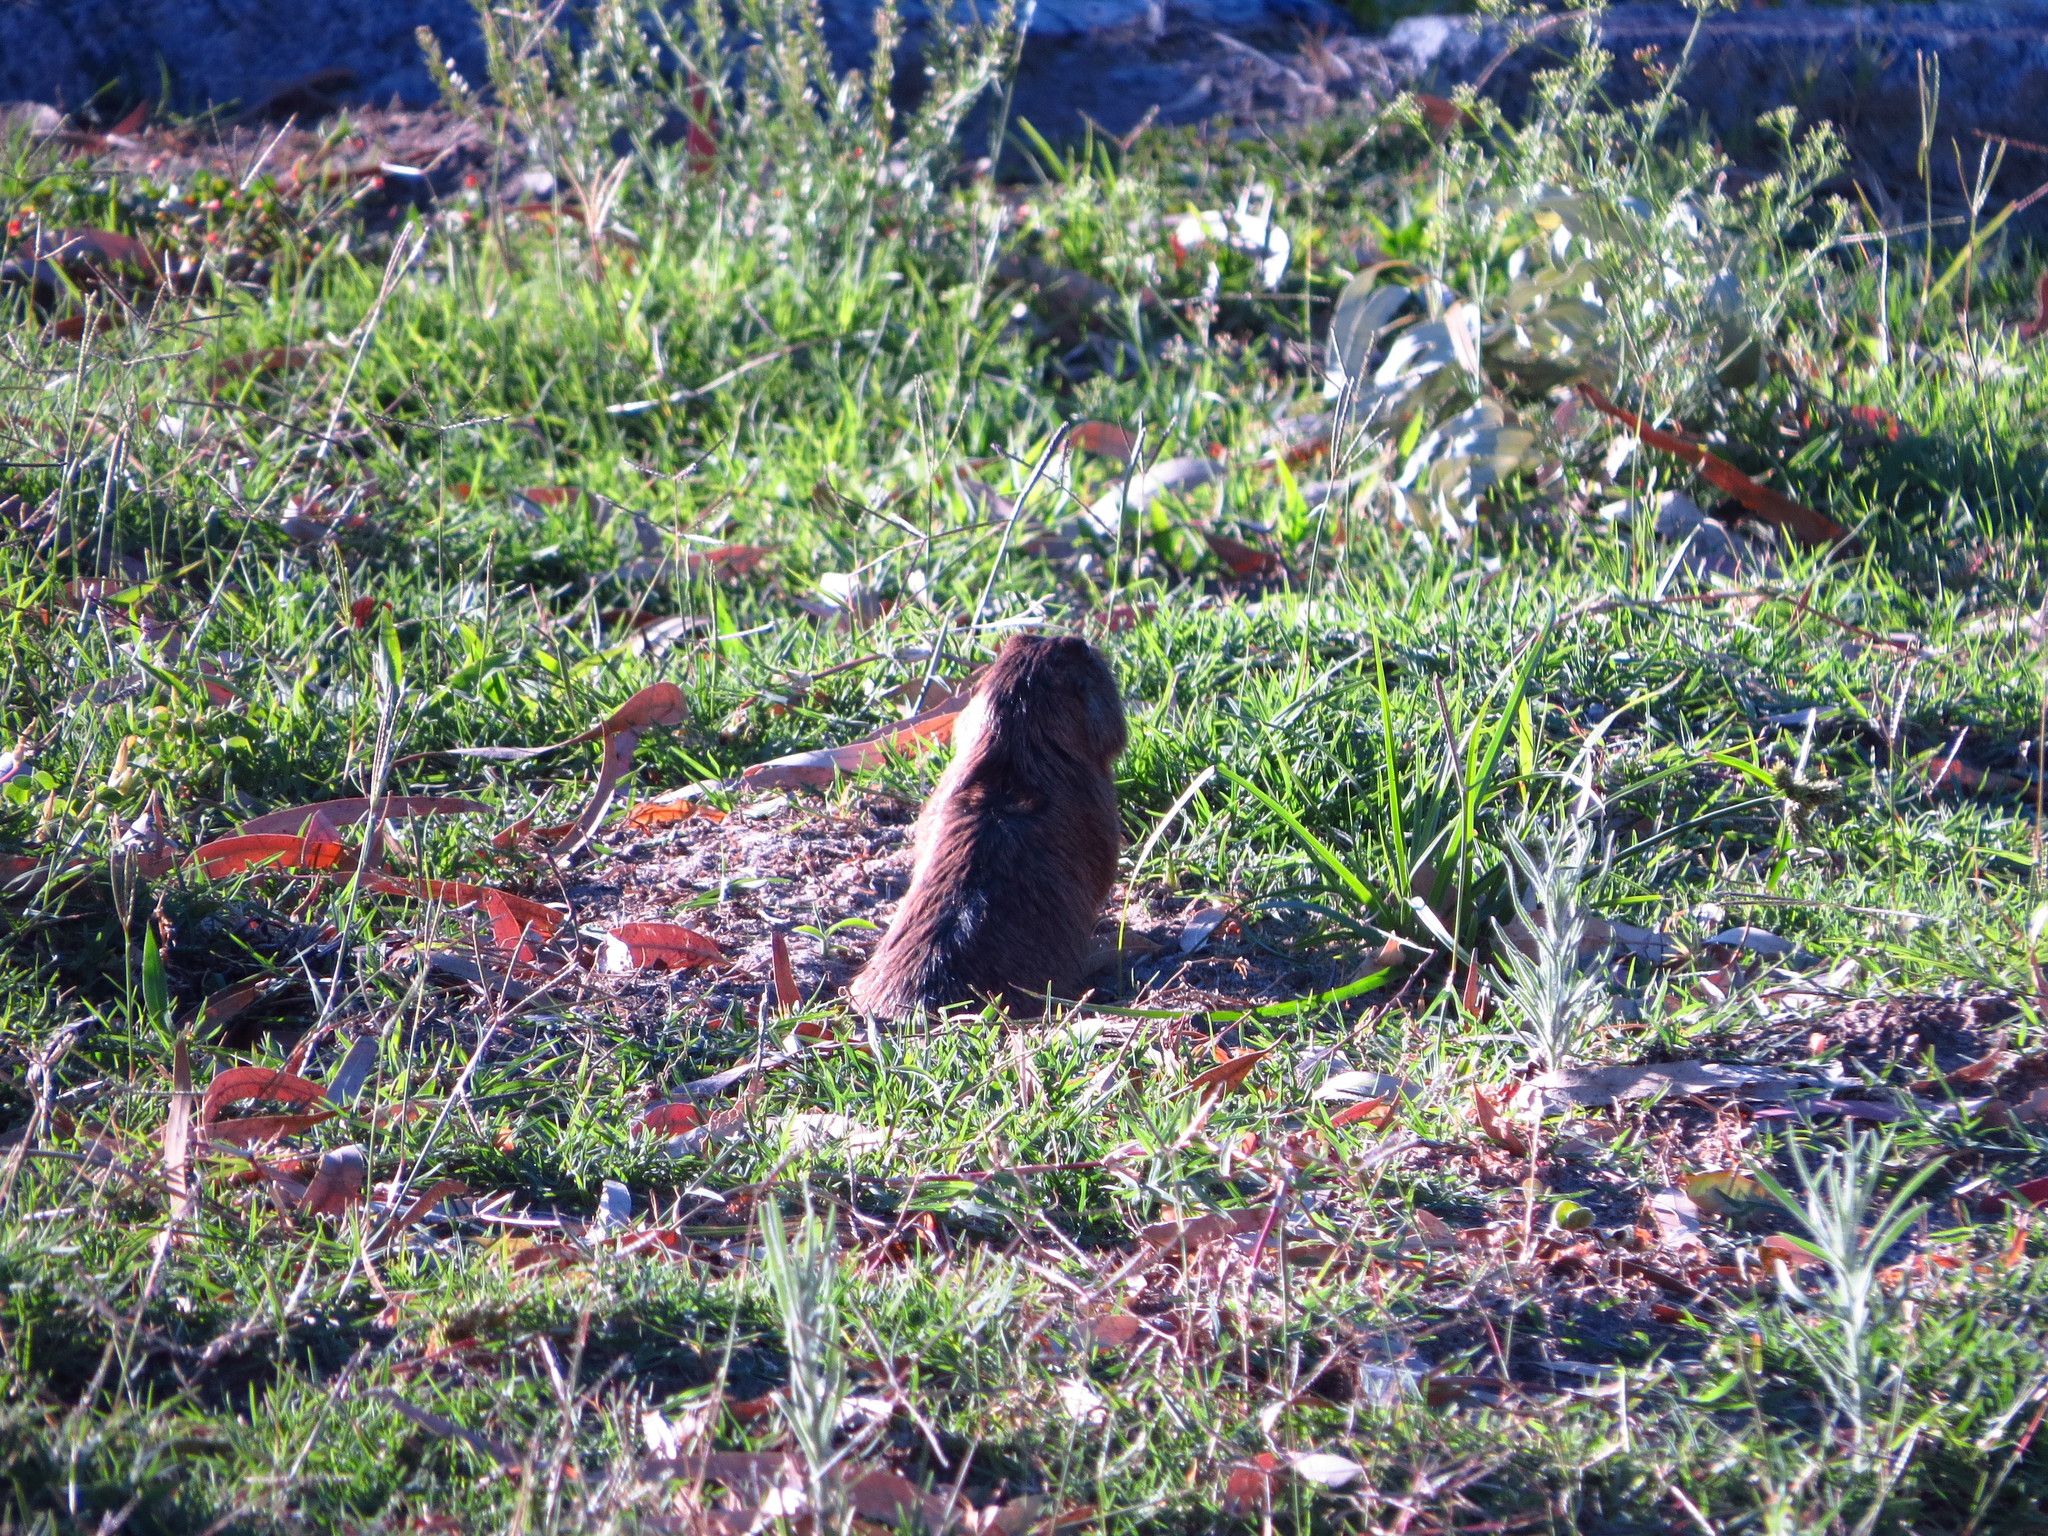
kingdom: Animalia
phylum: Chordata
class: Mammalia
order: Rodentia
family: Ctenomyidae
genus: Ctenomys
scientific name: Ctenomys pearsoni
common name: Pearson's tuco-tuco
